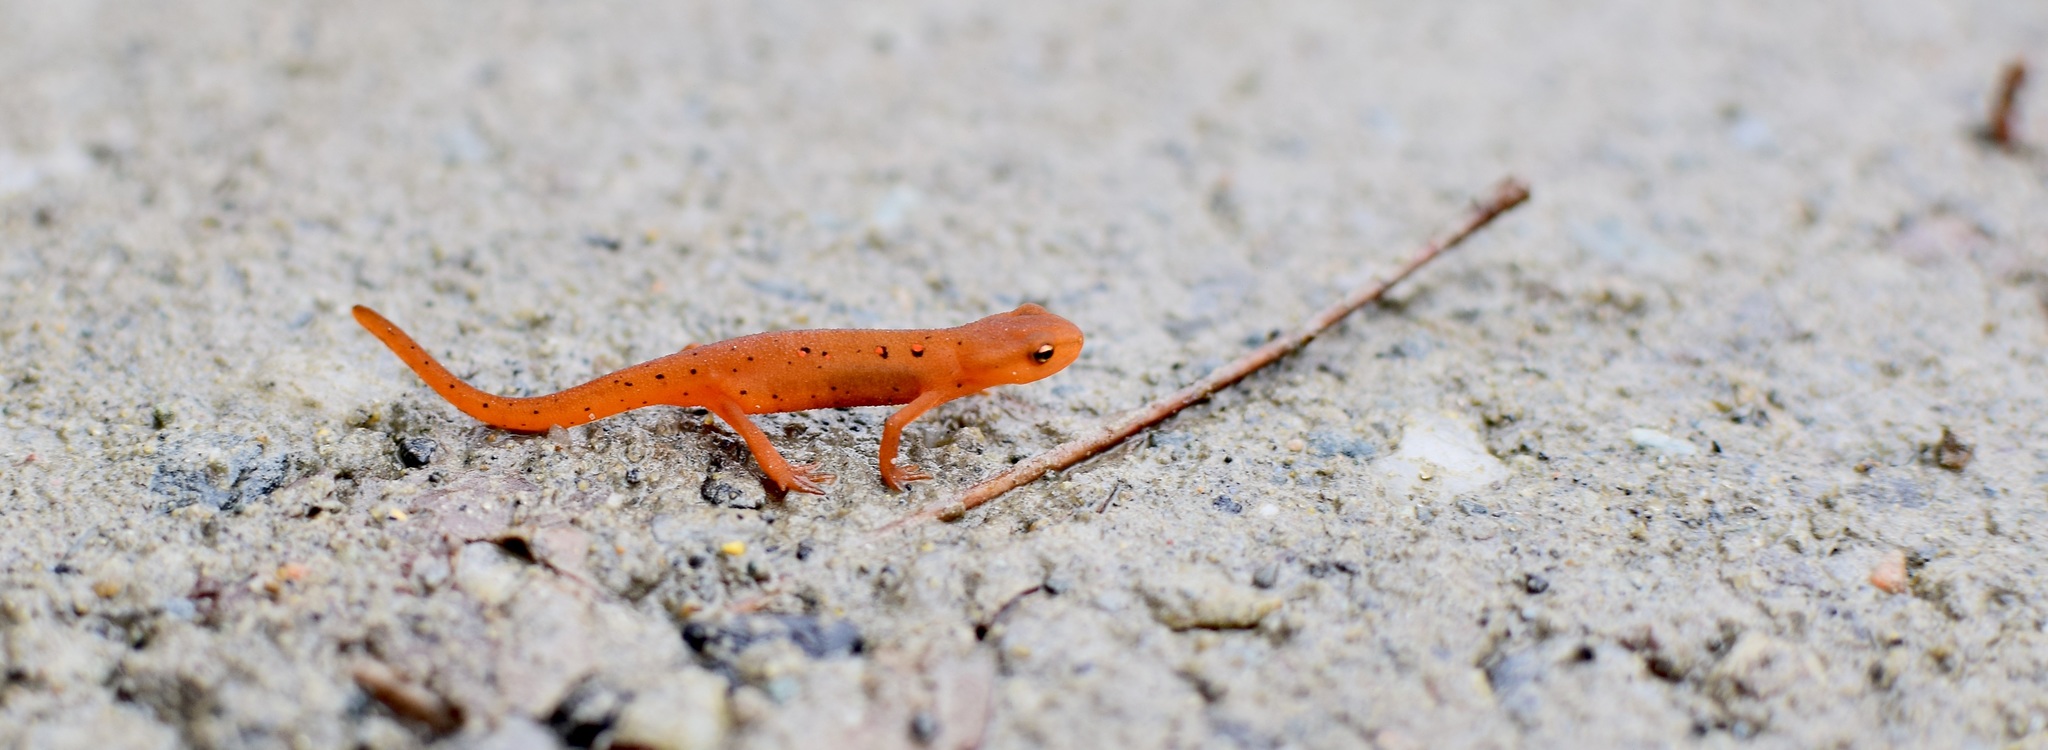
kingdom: Animalia
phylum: Chordata
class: Amphibia
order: Caudata
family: Salamandridae
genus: Notophthalmus
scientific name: Notophthalmus viridescens
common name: Eastern newt
